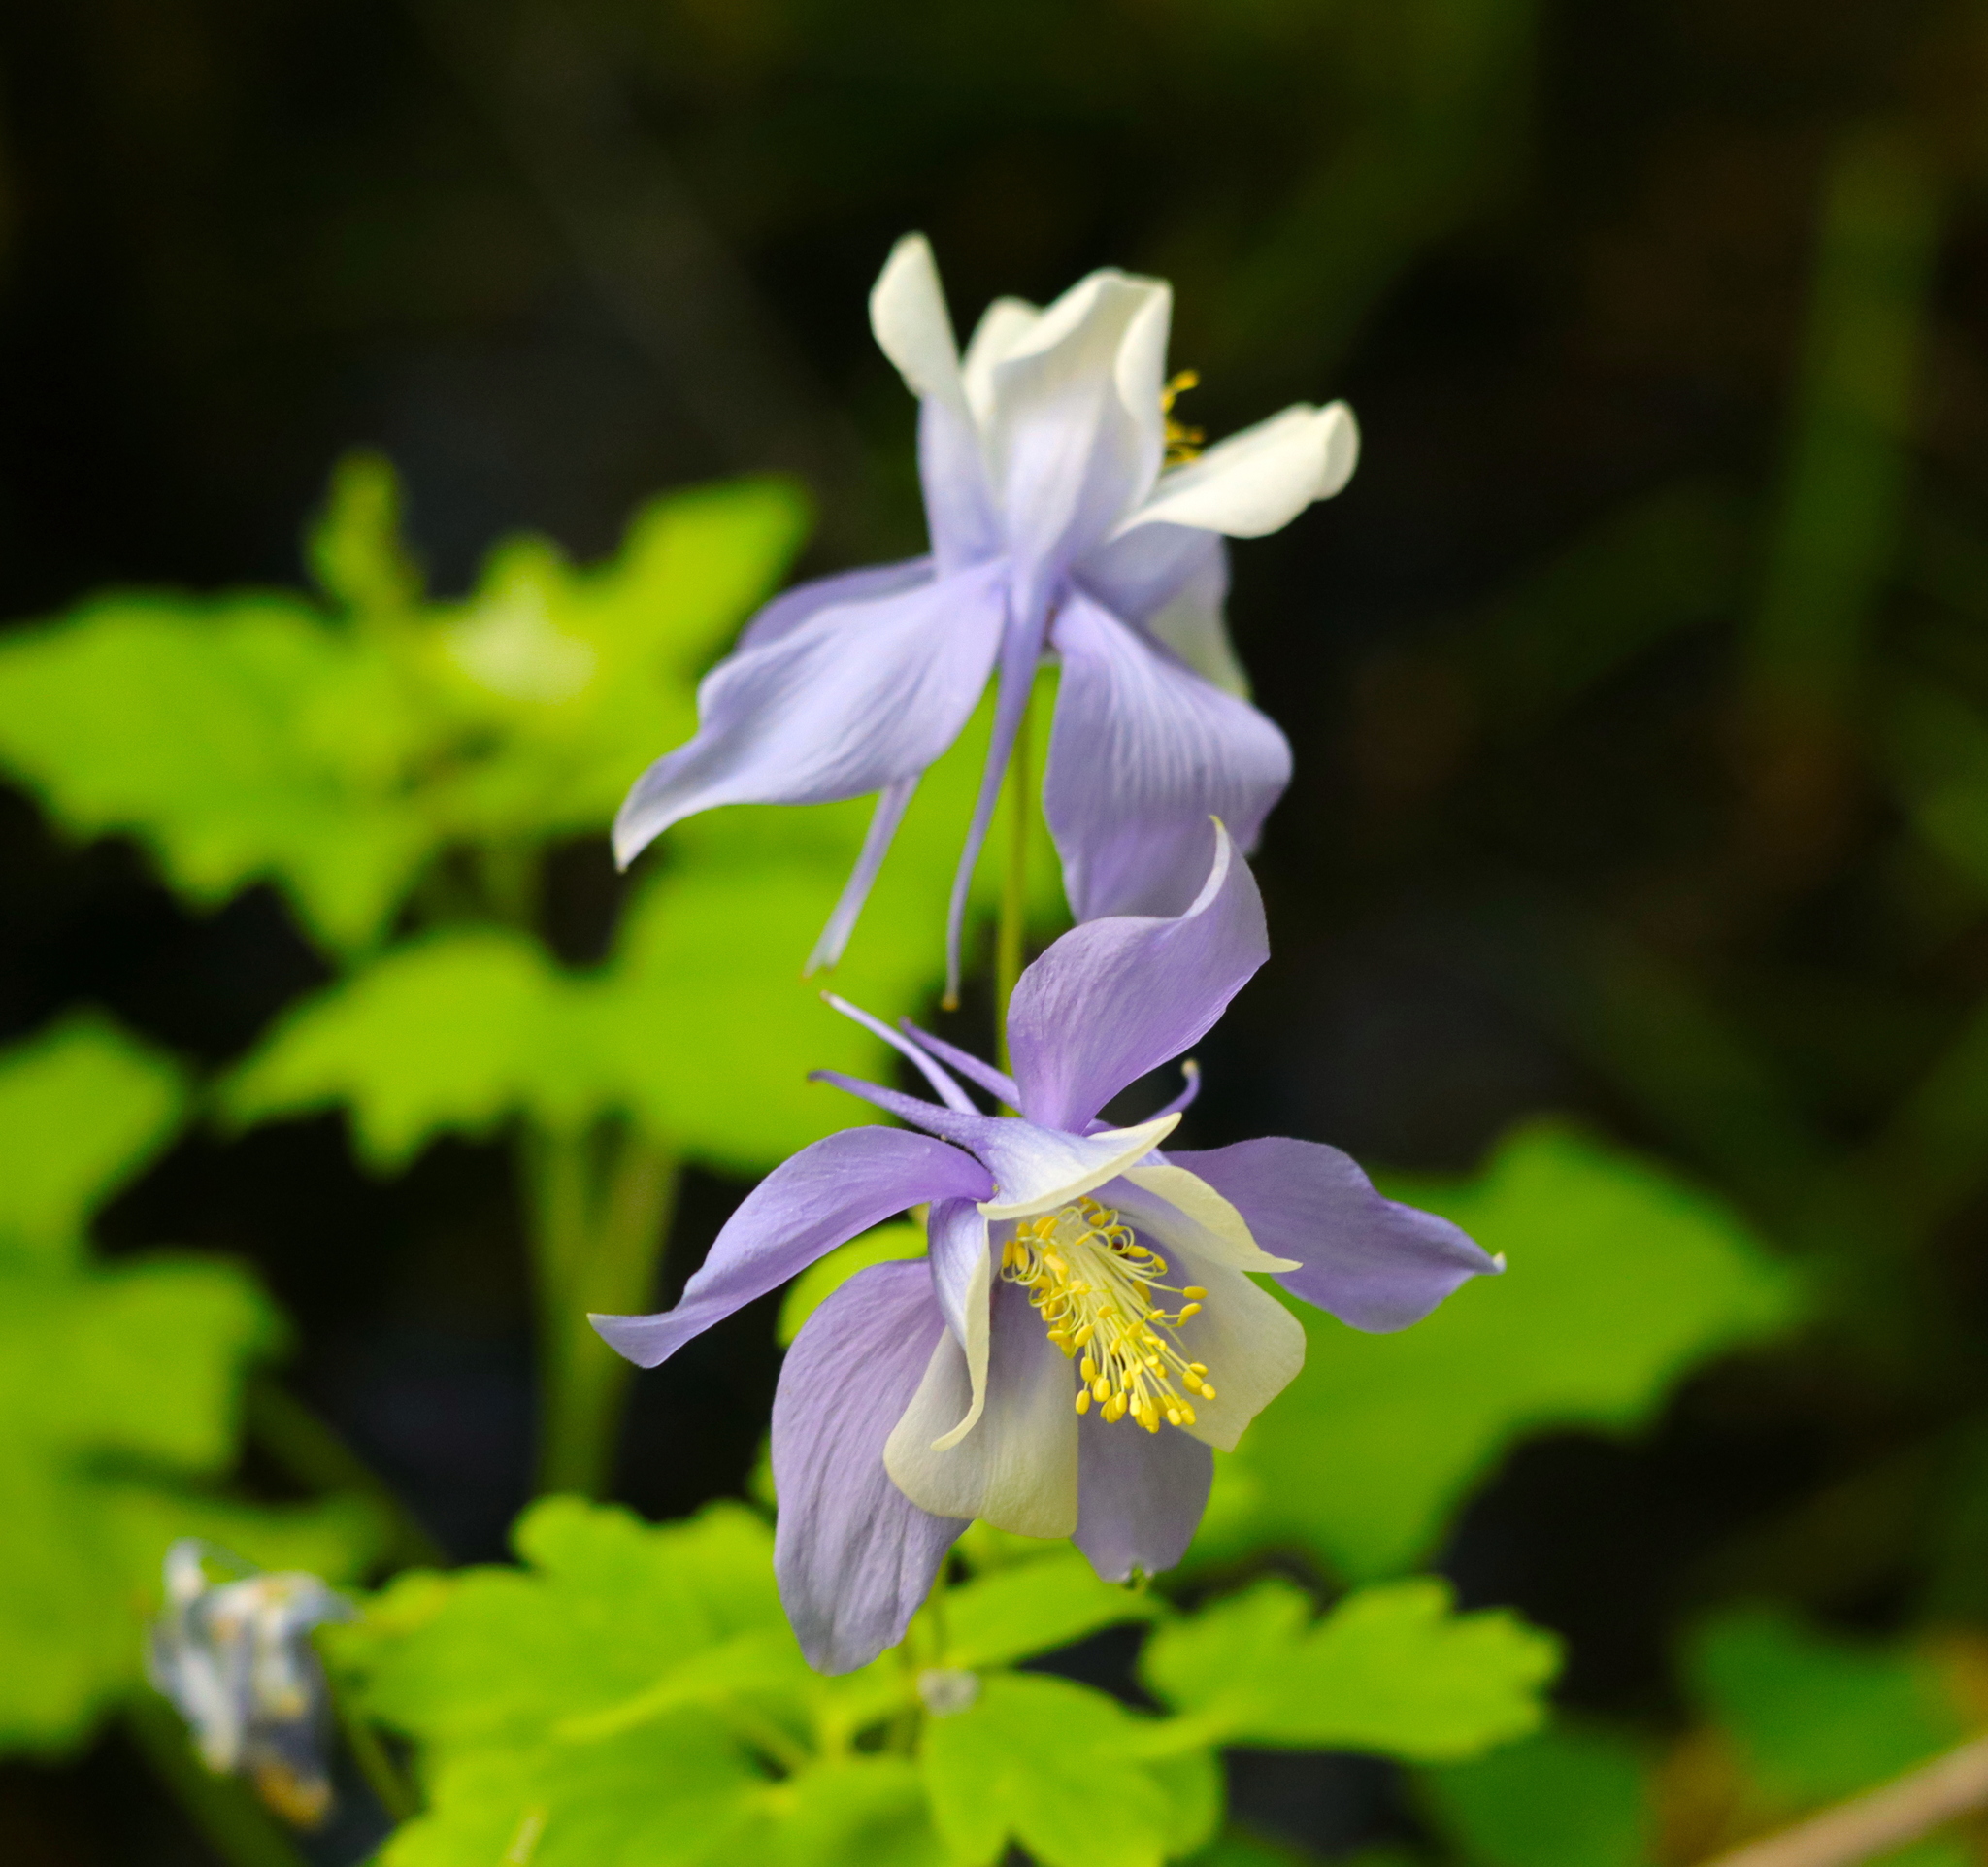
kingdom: Plantae
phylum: Tracheophyta
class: Magnoliopsida
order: Ranunculales
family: Ranunculaceae
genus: Aquilegia
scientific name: Aquilegia
